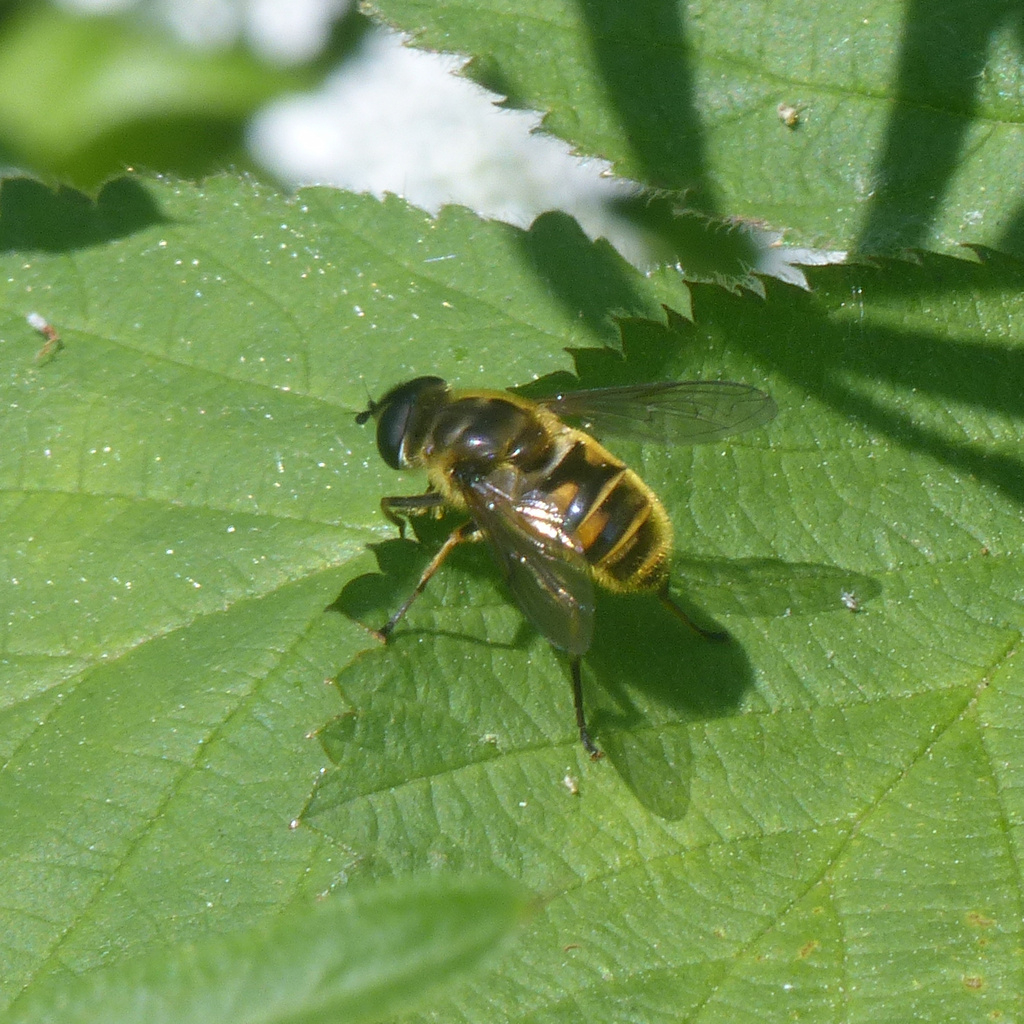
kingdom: Animalia
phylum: Arthropoda
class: Insecta
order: Diptera
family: Syrphidae
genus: Myathropa
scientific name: Myathropa florea
